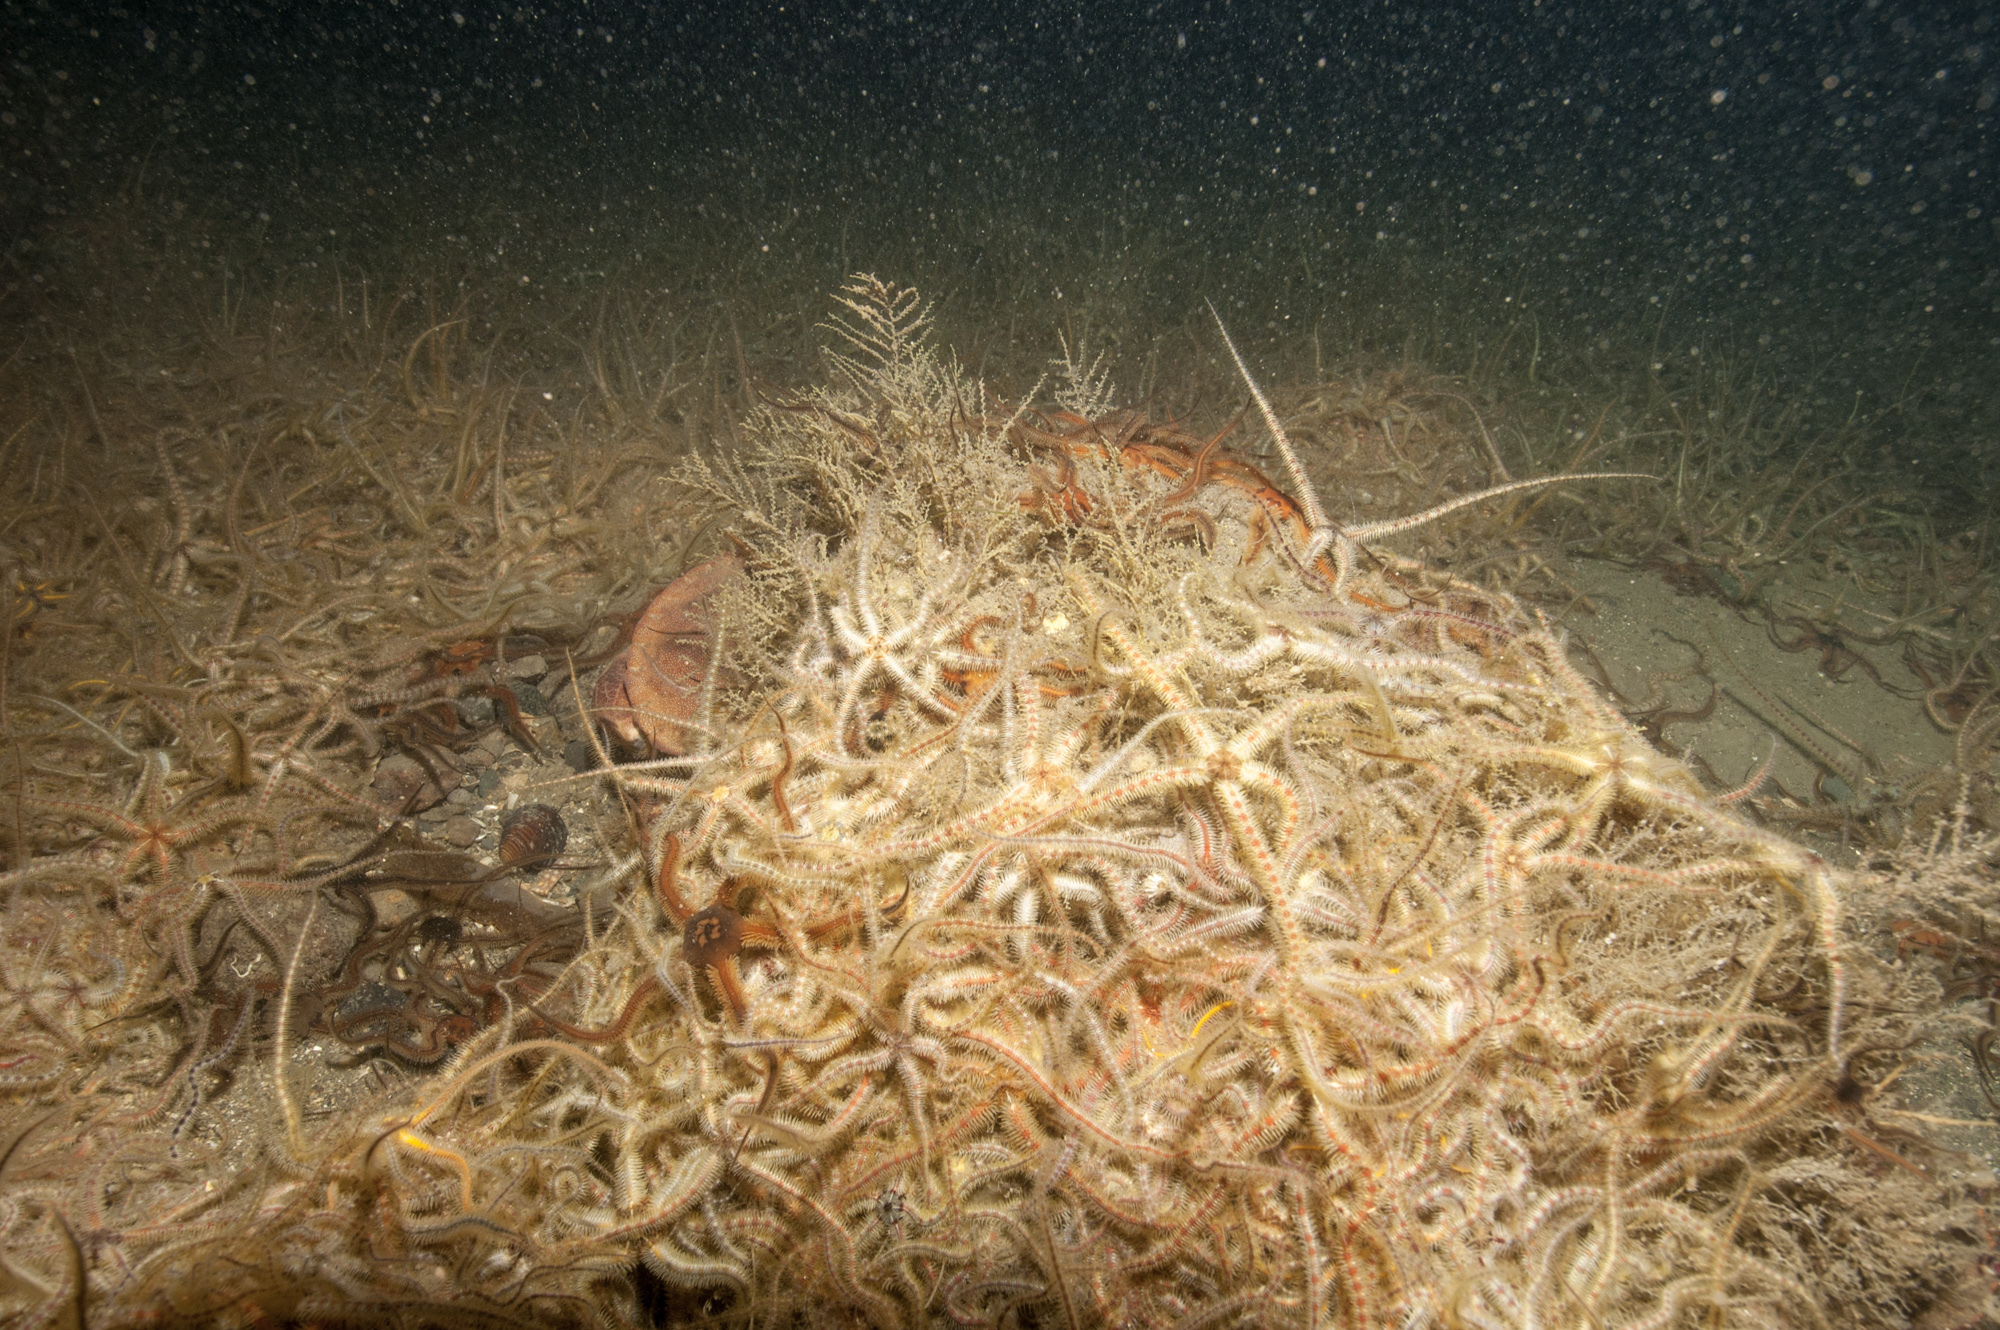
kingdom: Animalia
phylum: Echinodermata
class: Ophiuroidea
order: Amphilepidida
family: Ophiotrichidae
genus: Ophiothrix
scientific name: Ophiothrix fragilis
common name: Common brittlestar
